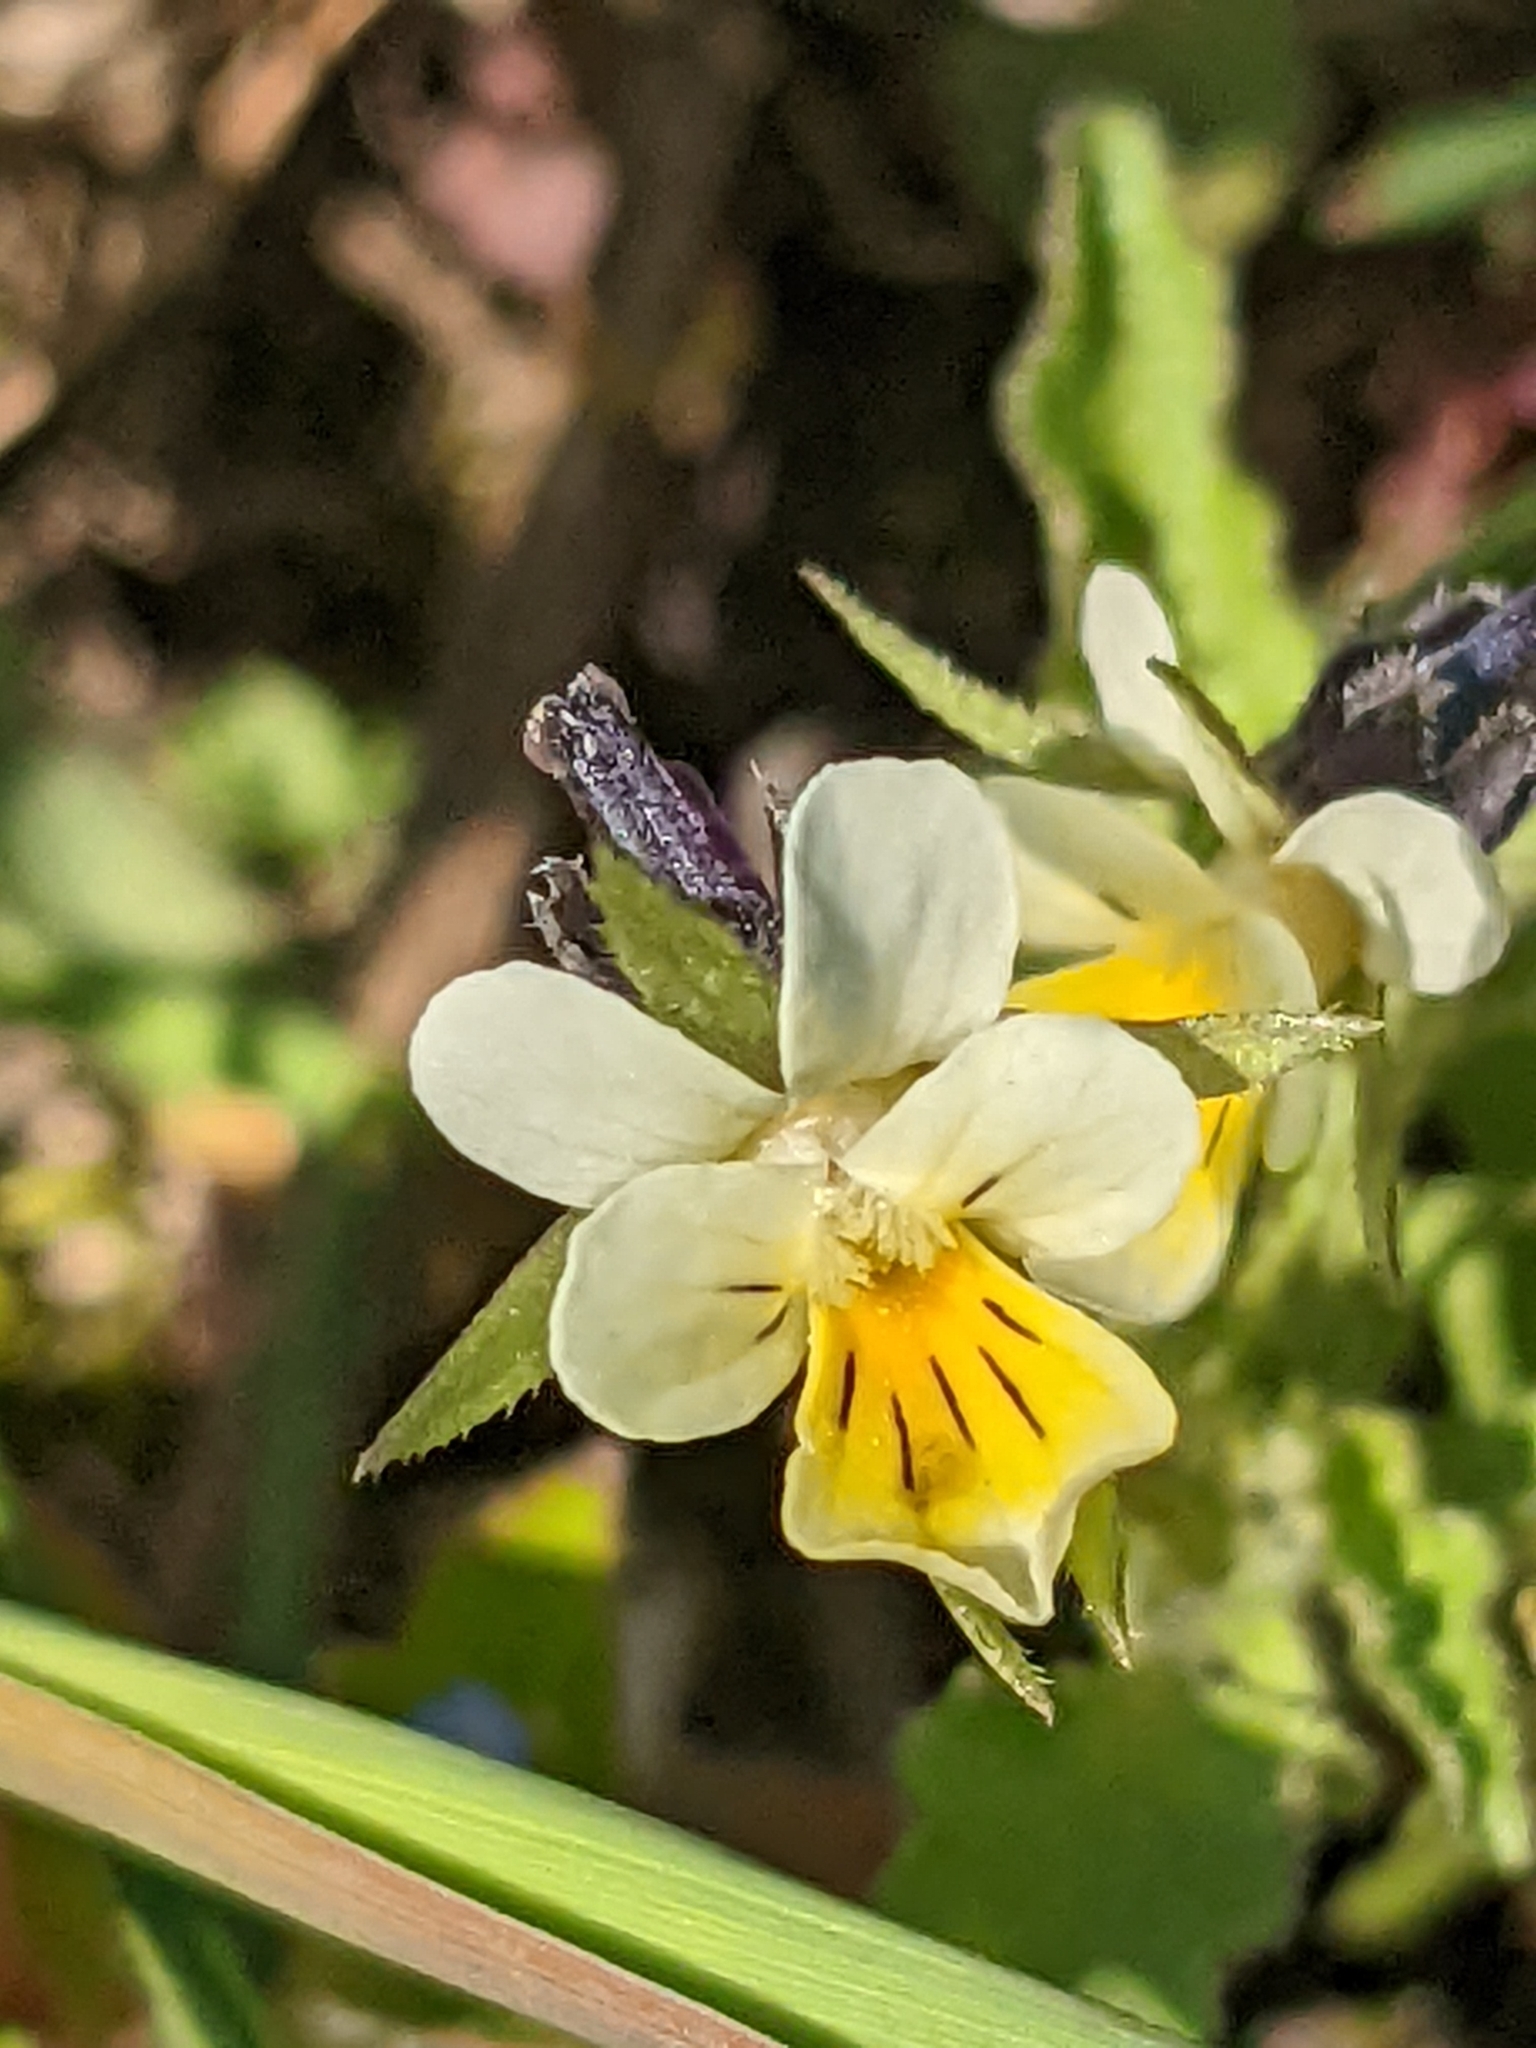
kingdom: Plantae
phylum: Tracheophyta
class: Magnoliopsida
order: Malpighiales
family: Violaceae
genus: Viola
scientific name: Viola arvensis
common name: Field pansy
